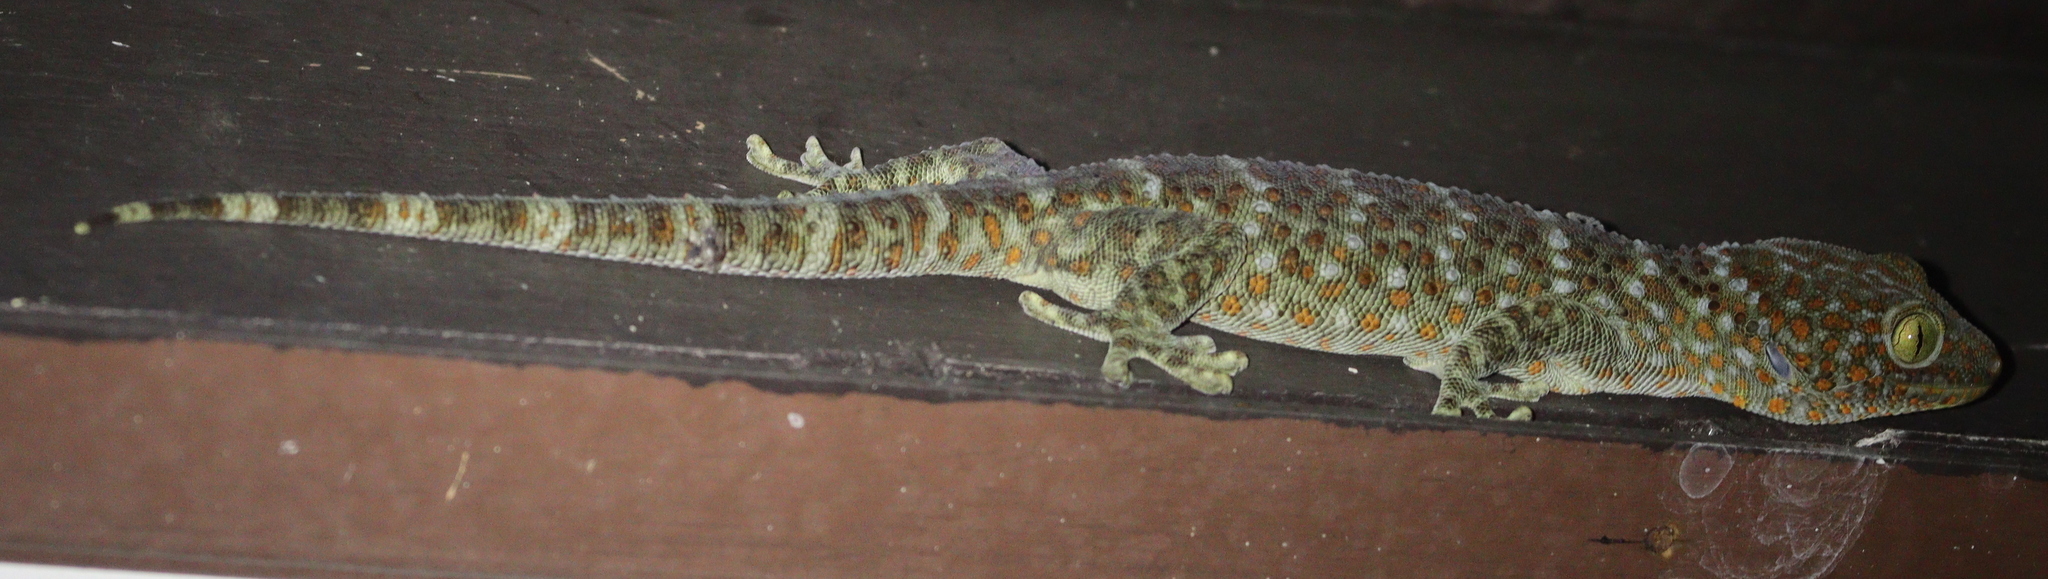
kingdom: Animalia
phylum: Chordata
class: Squamata
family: Gekkonidae
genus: Gekko
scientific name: Gekko gecko
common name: Tokay gecko
